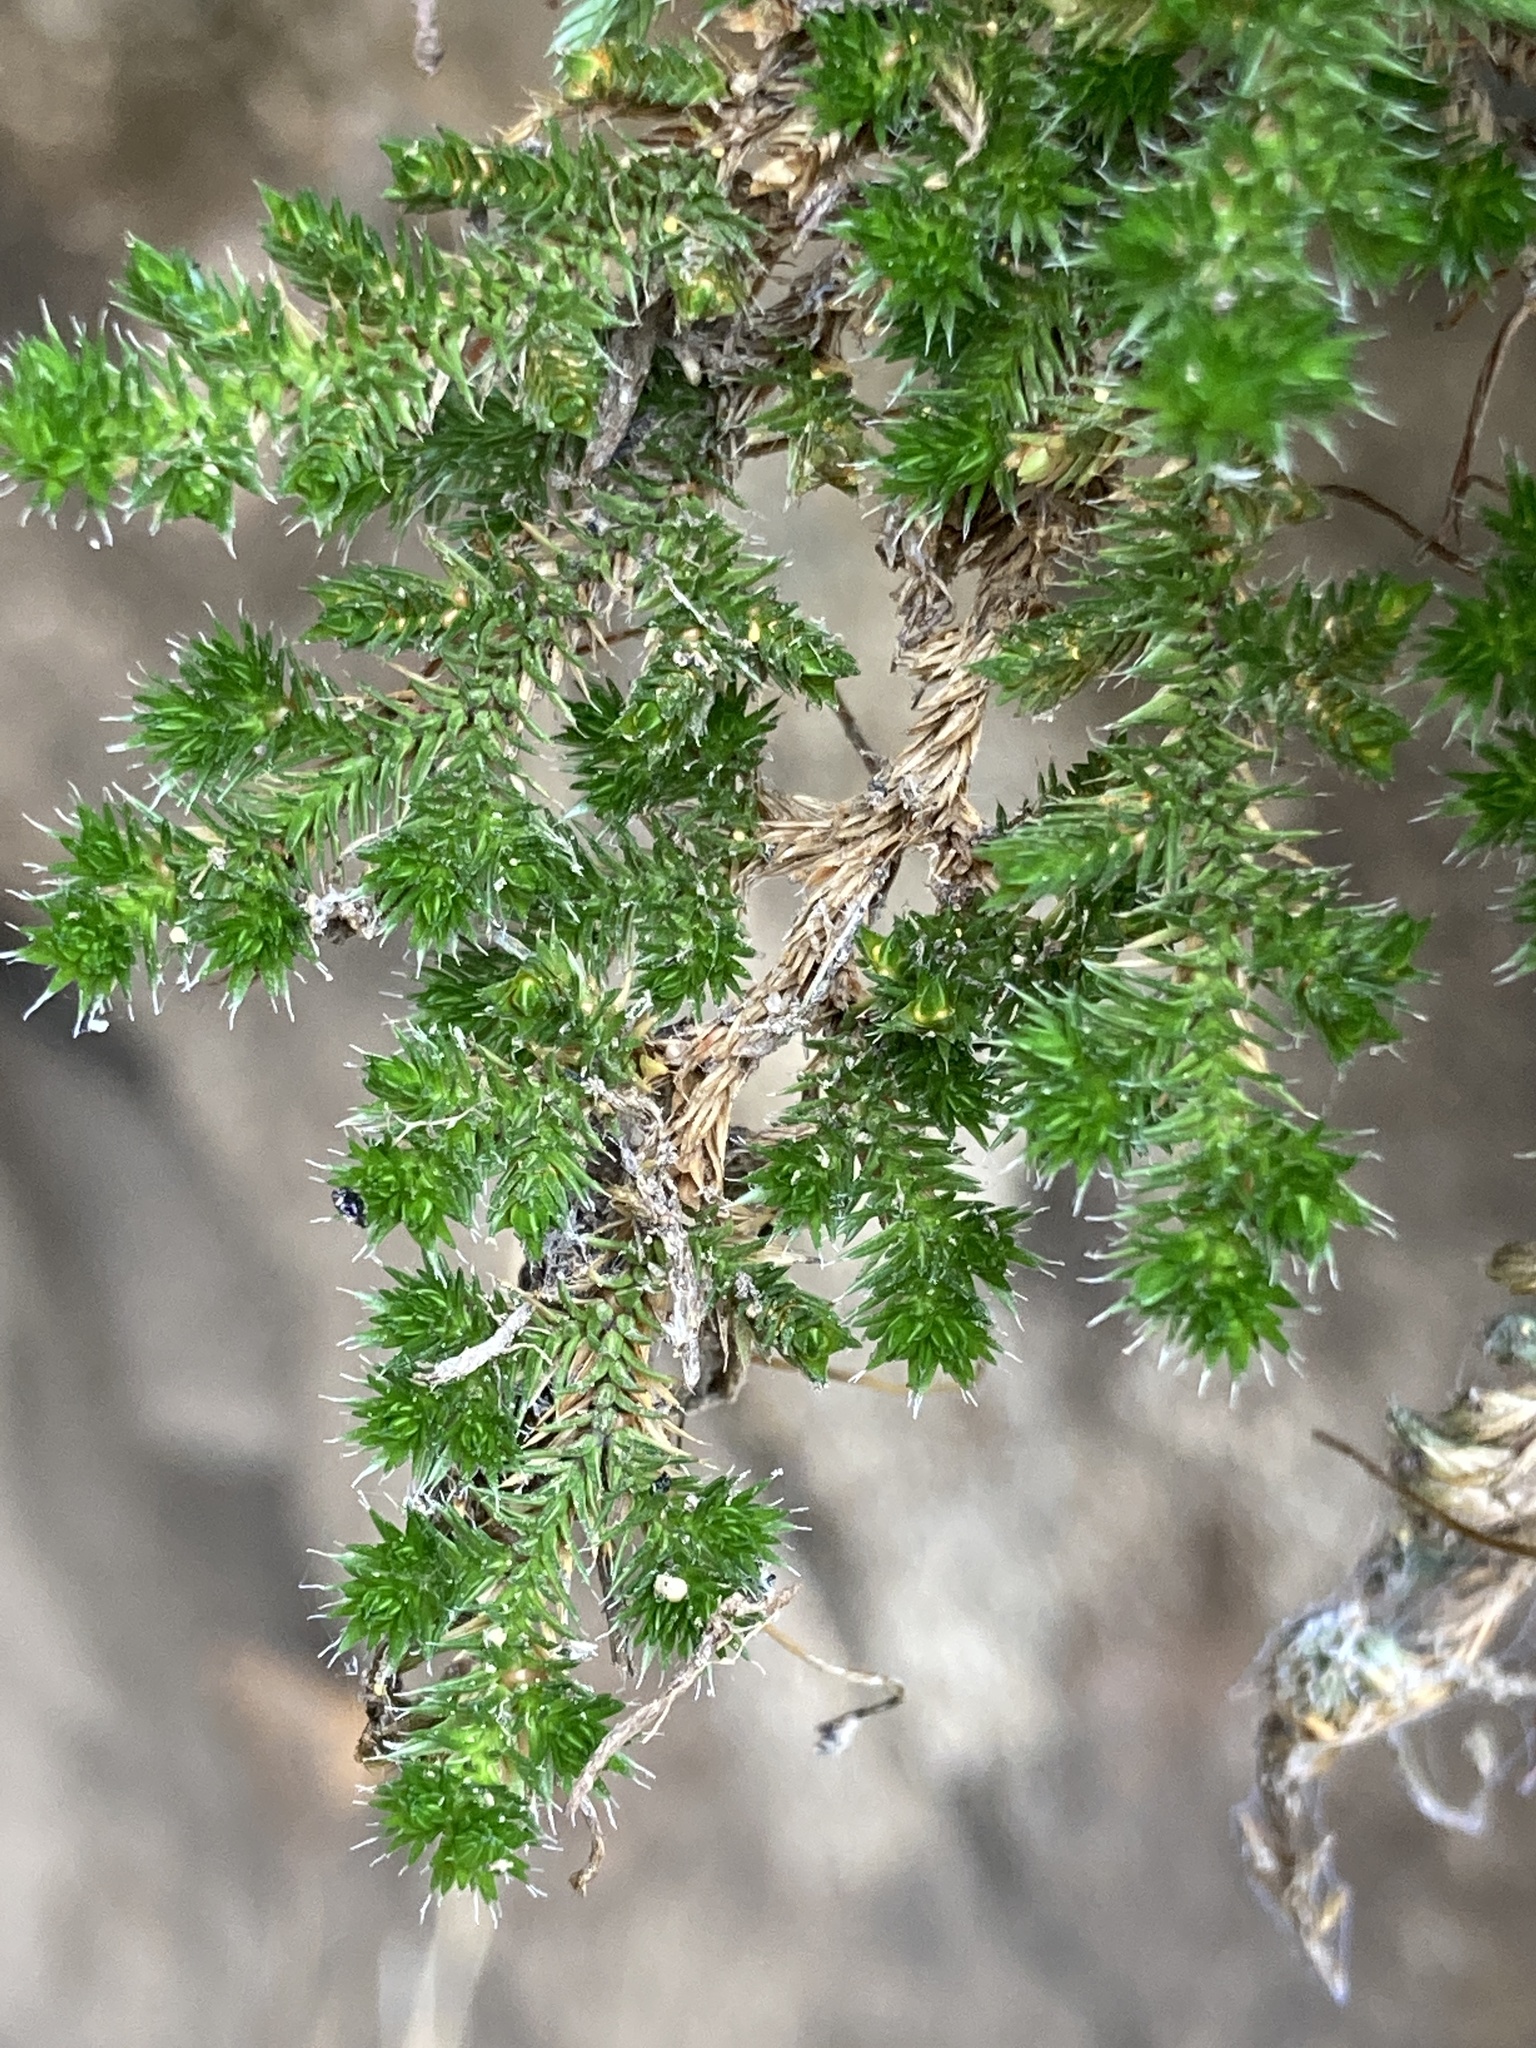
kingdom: Plantae
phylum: Tracheophyta
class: Lycopodiopsida
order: Selaginellales
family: Selaginellaceae
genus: Selaginella
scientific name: Selaginella hansenii
